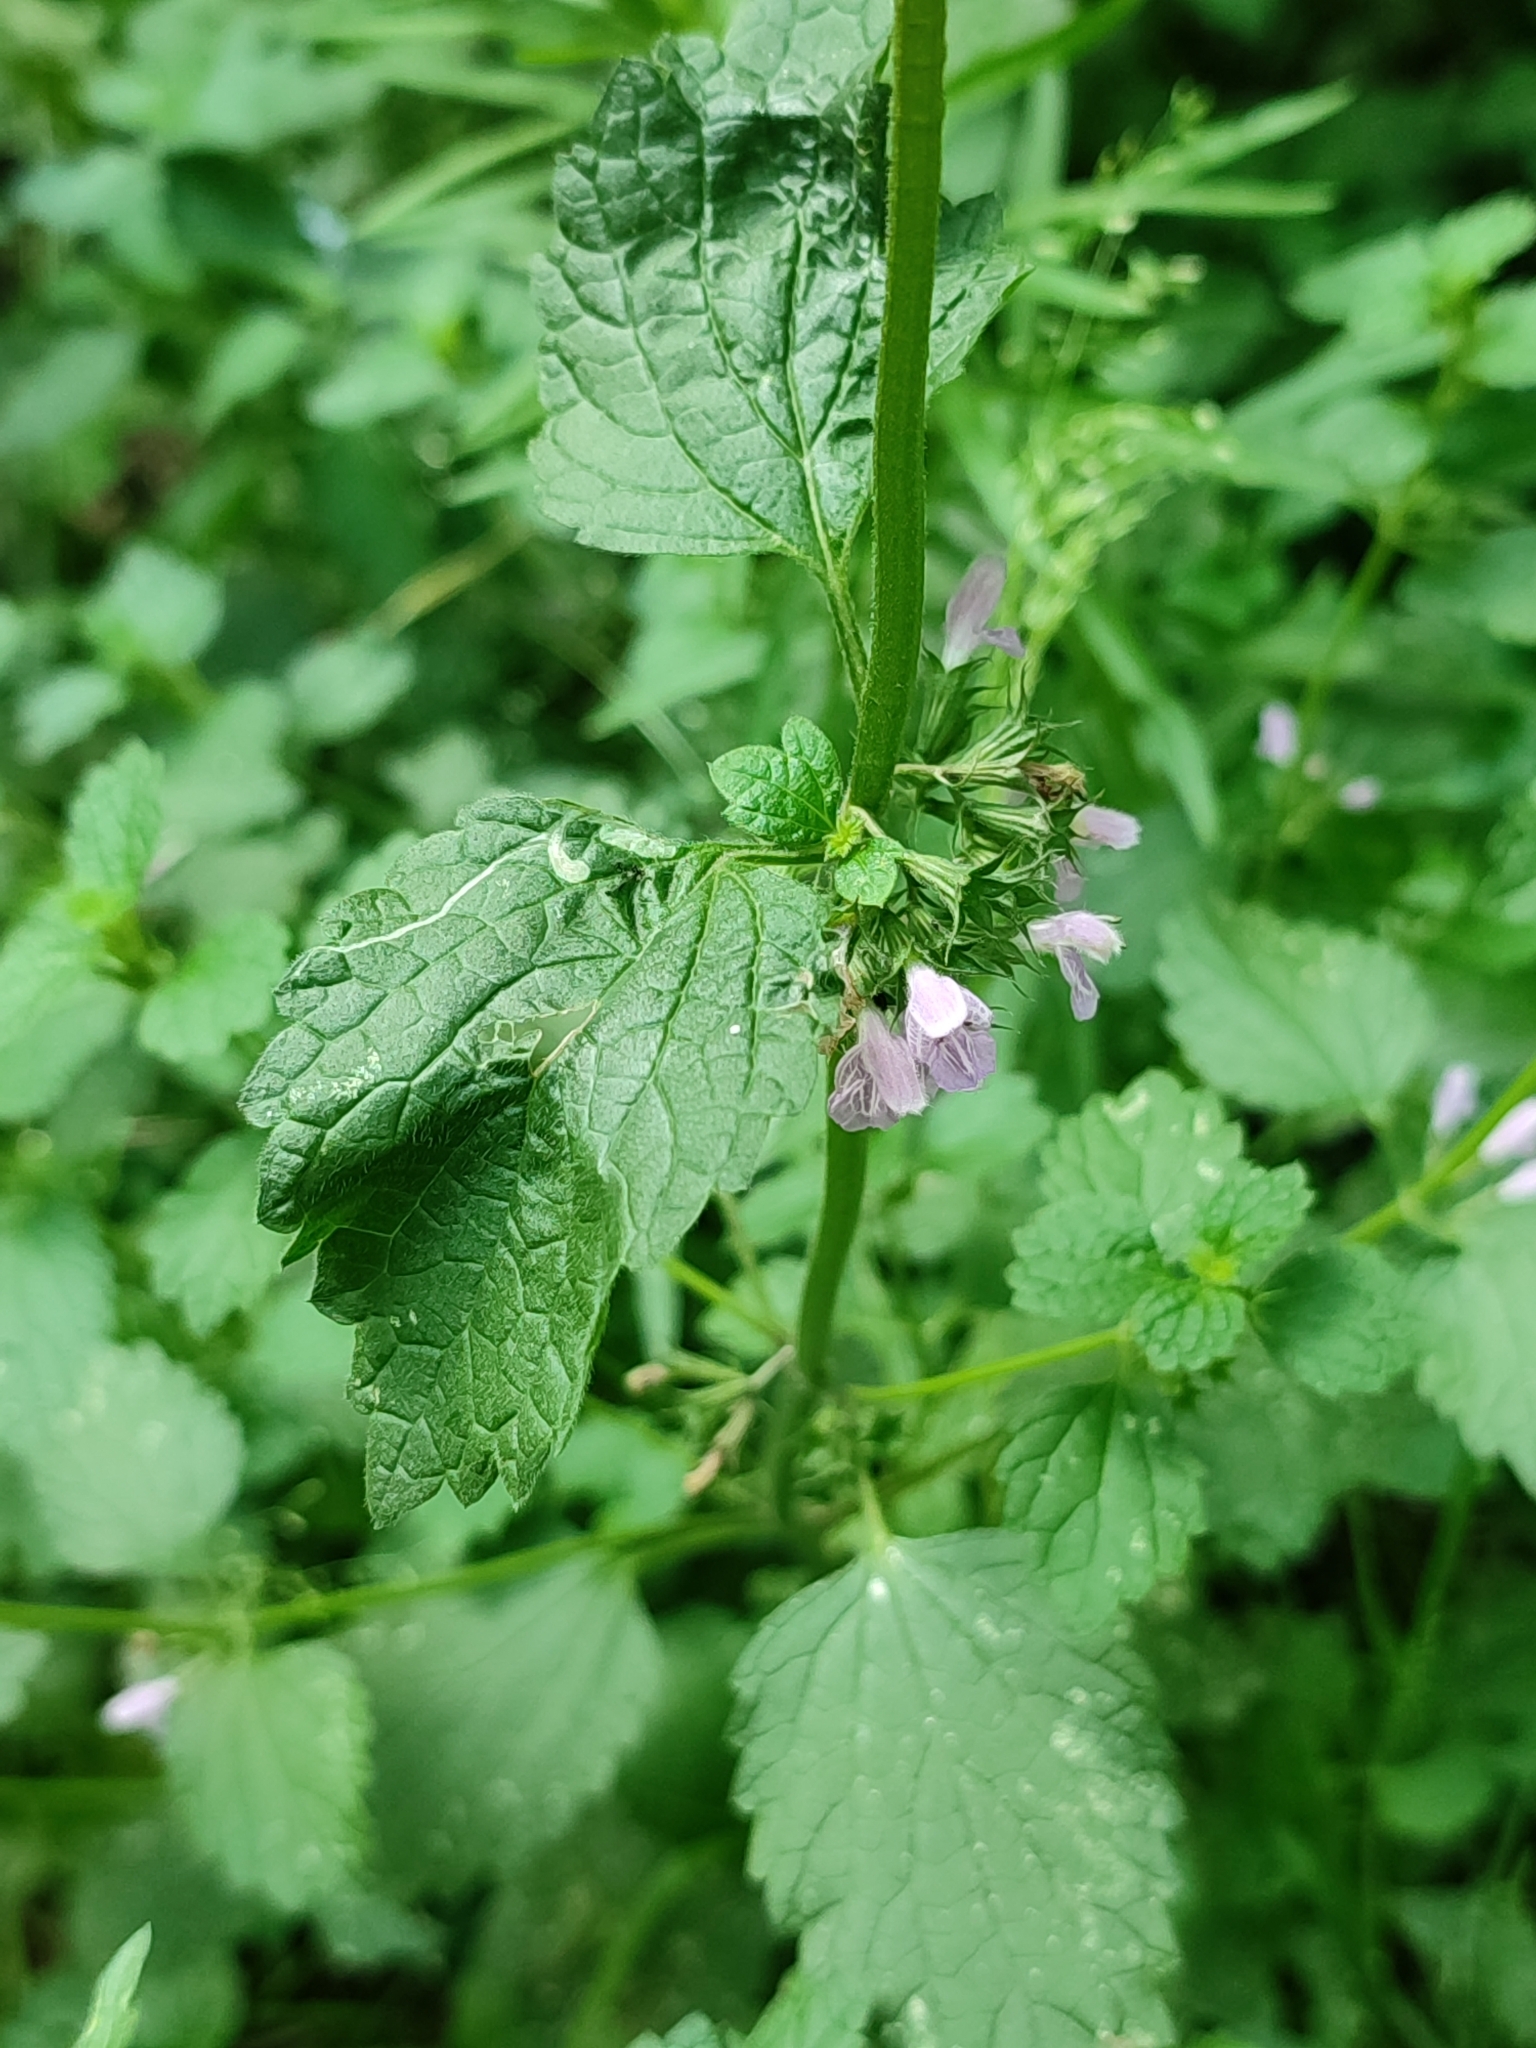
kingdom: Plantae
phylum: Tracheophyta
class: Magnoliopsida
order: Lamiales
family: Lamiaceae
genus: Ballota
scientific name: Ballota nigra
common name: Black horehound
